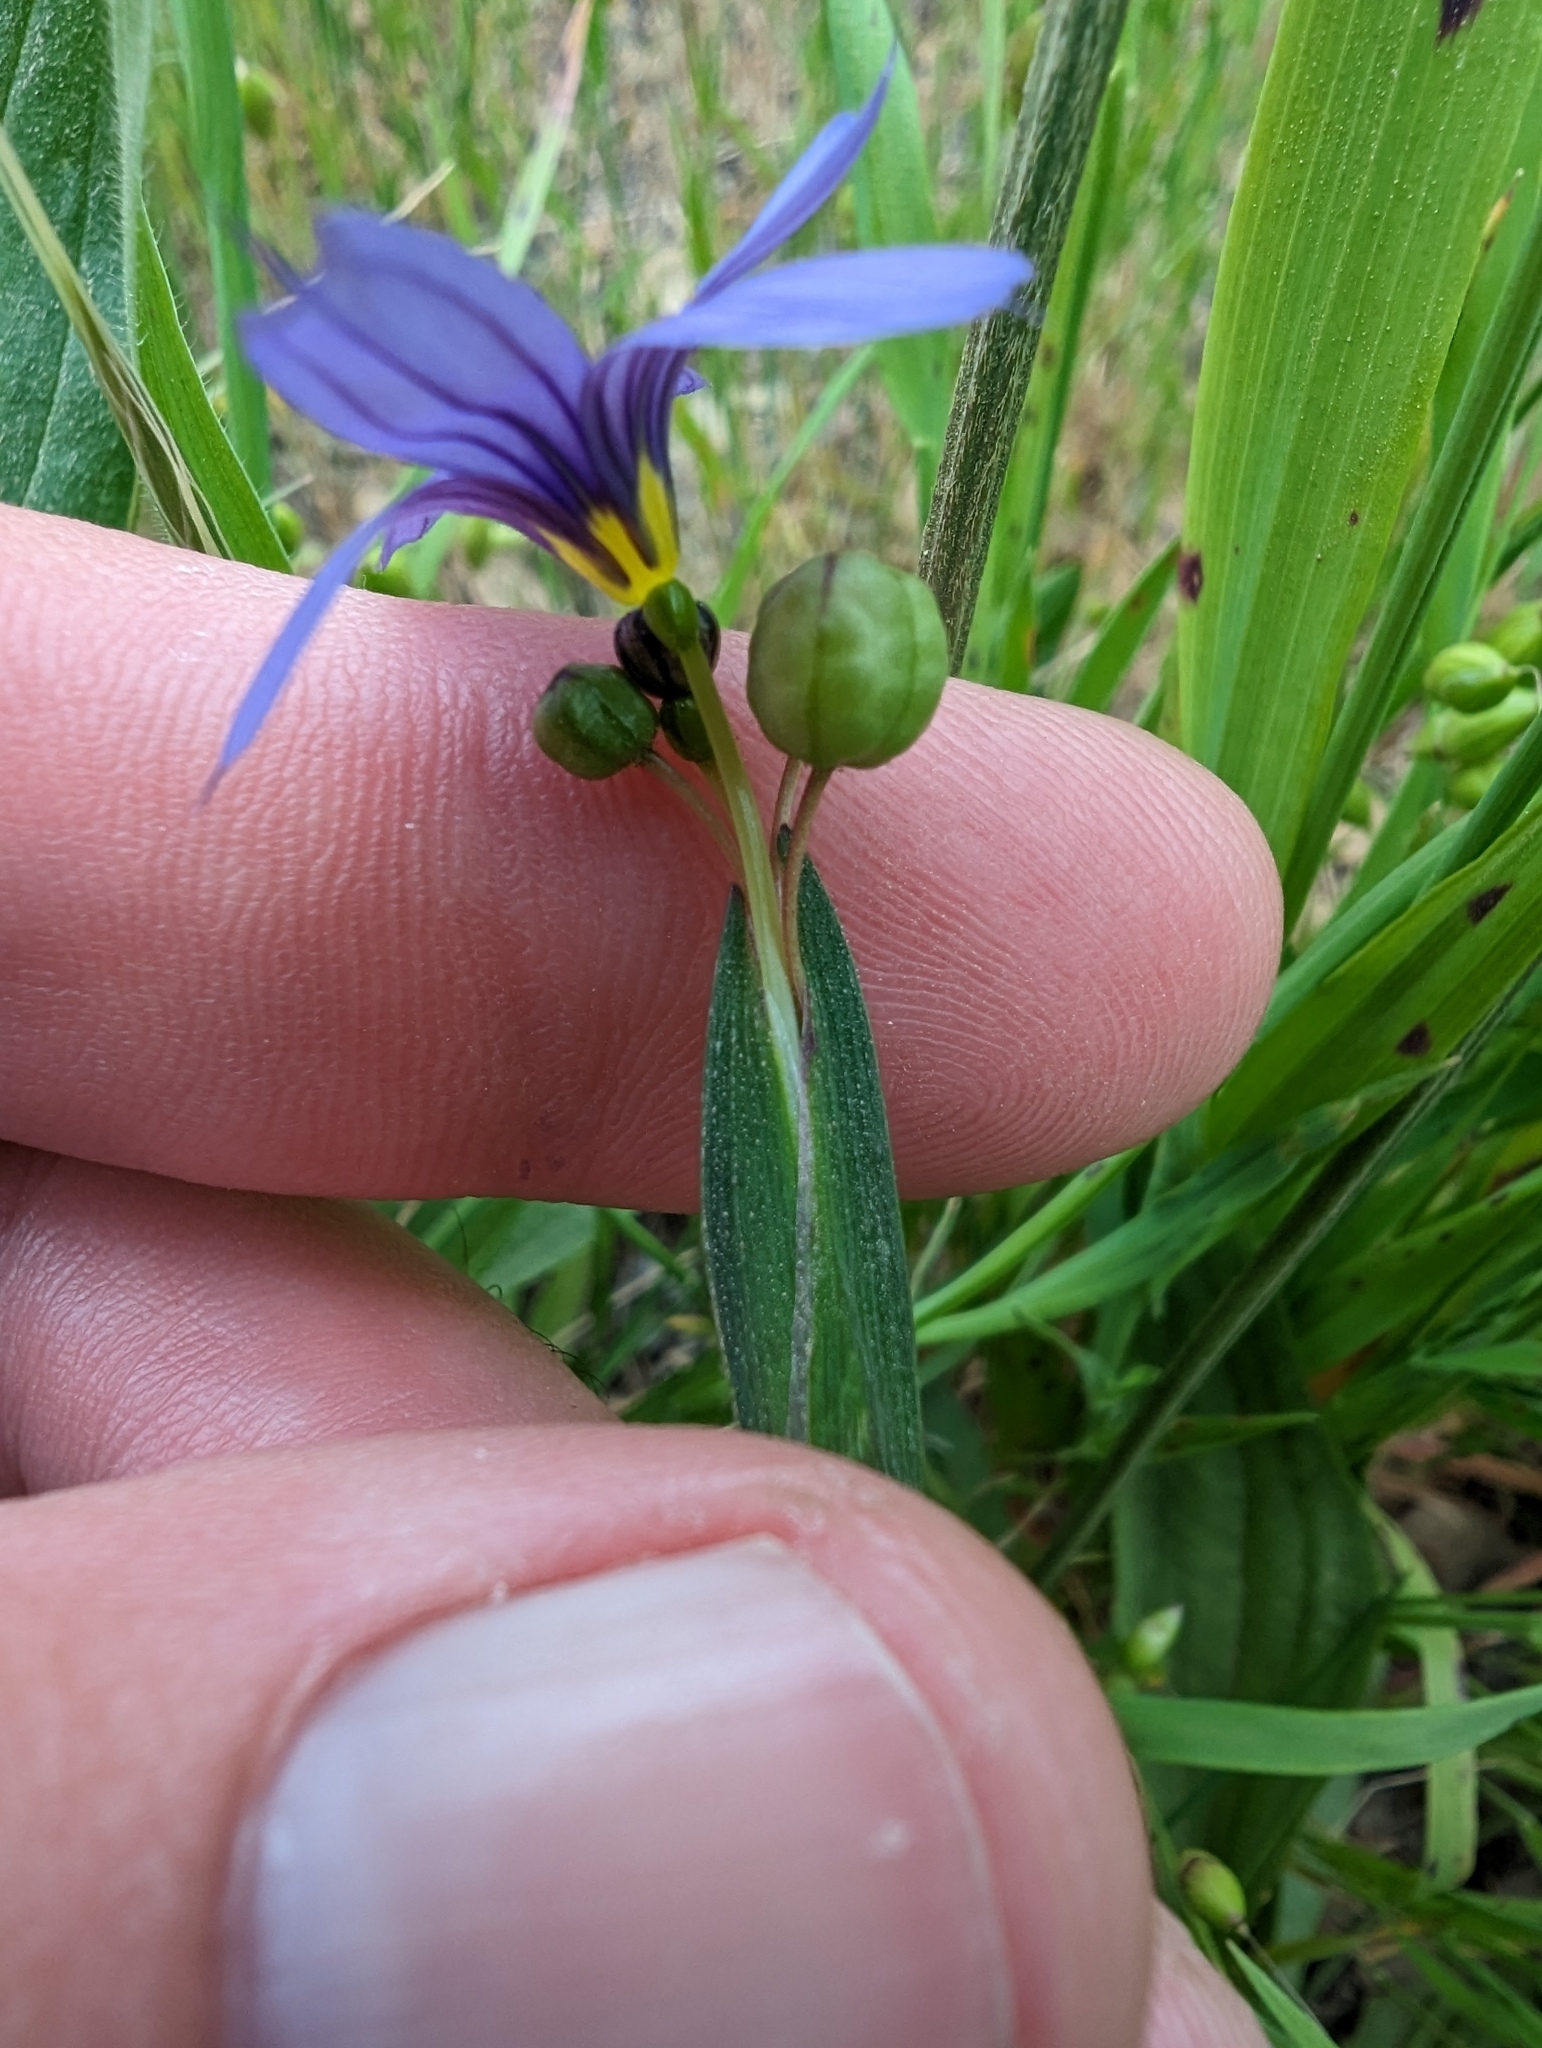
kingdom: Plantae
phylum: Tracheophyta
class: Liliopsida
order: Asparagales
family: Iridaceae
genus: Sisyrinchium
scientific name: Sisyrinchium bellum
